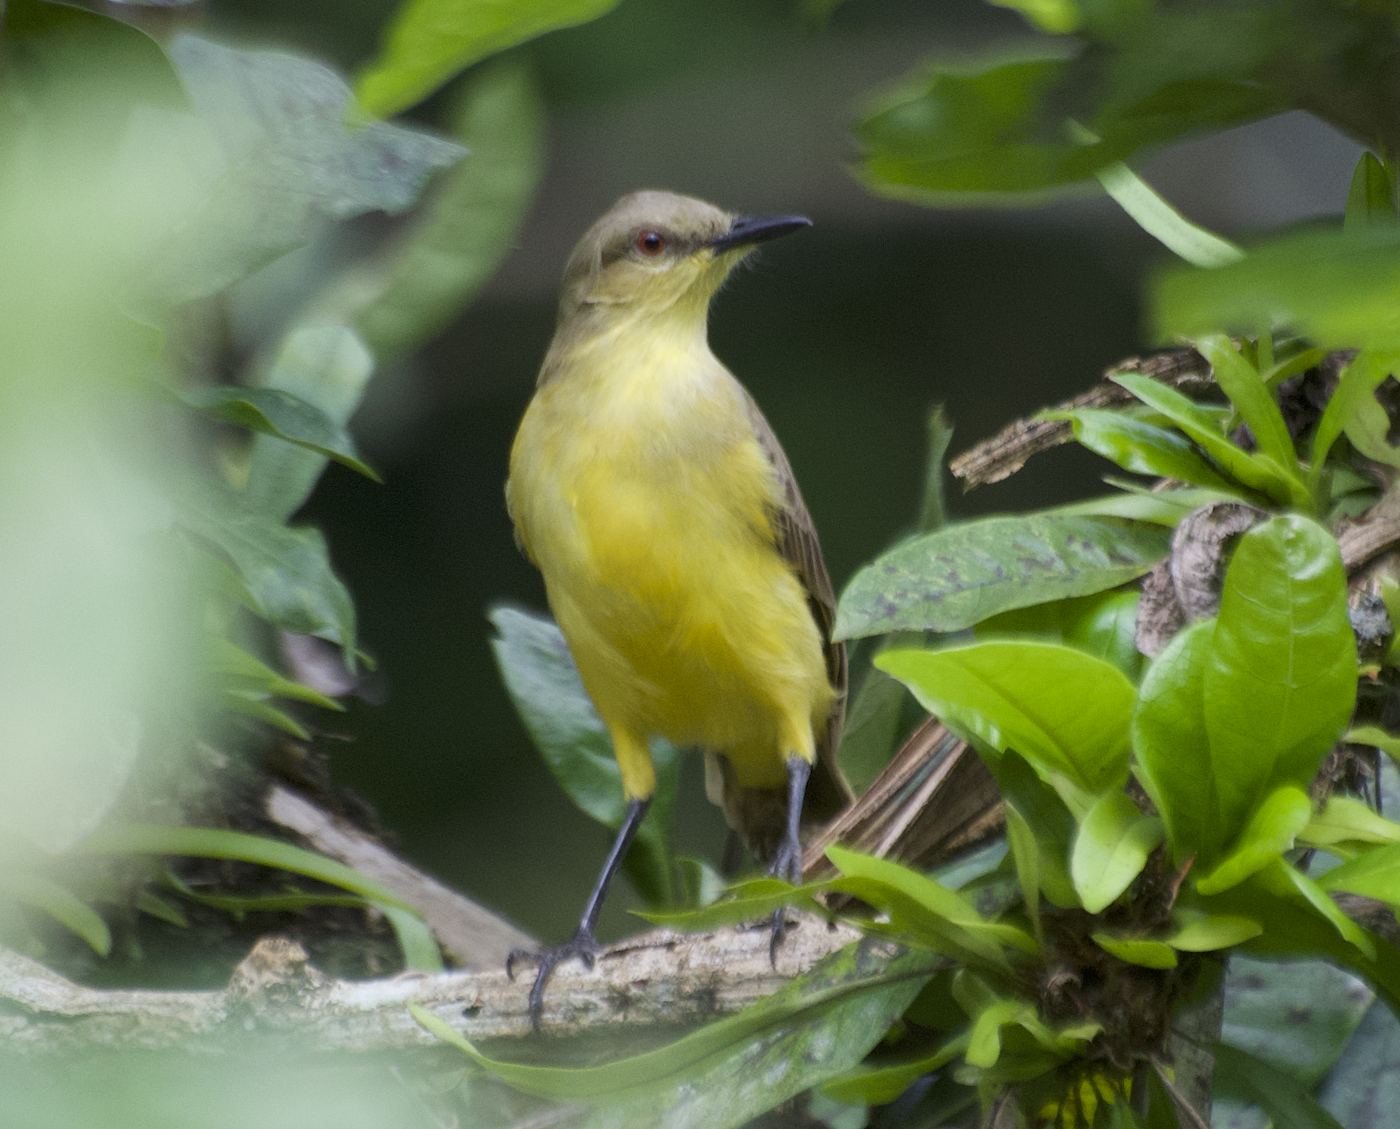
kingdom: Animalia
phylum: Chordata
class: Aves
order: Passeriformes
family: Tyrannidae
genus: Machetornis
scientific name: Machetornis rixosa
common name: Cattle tyrant
